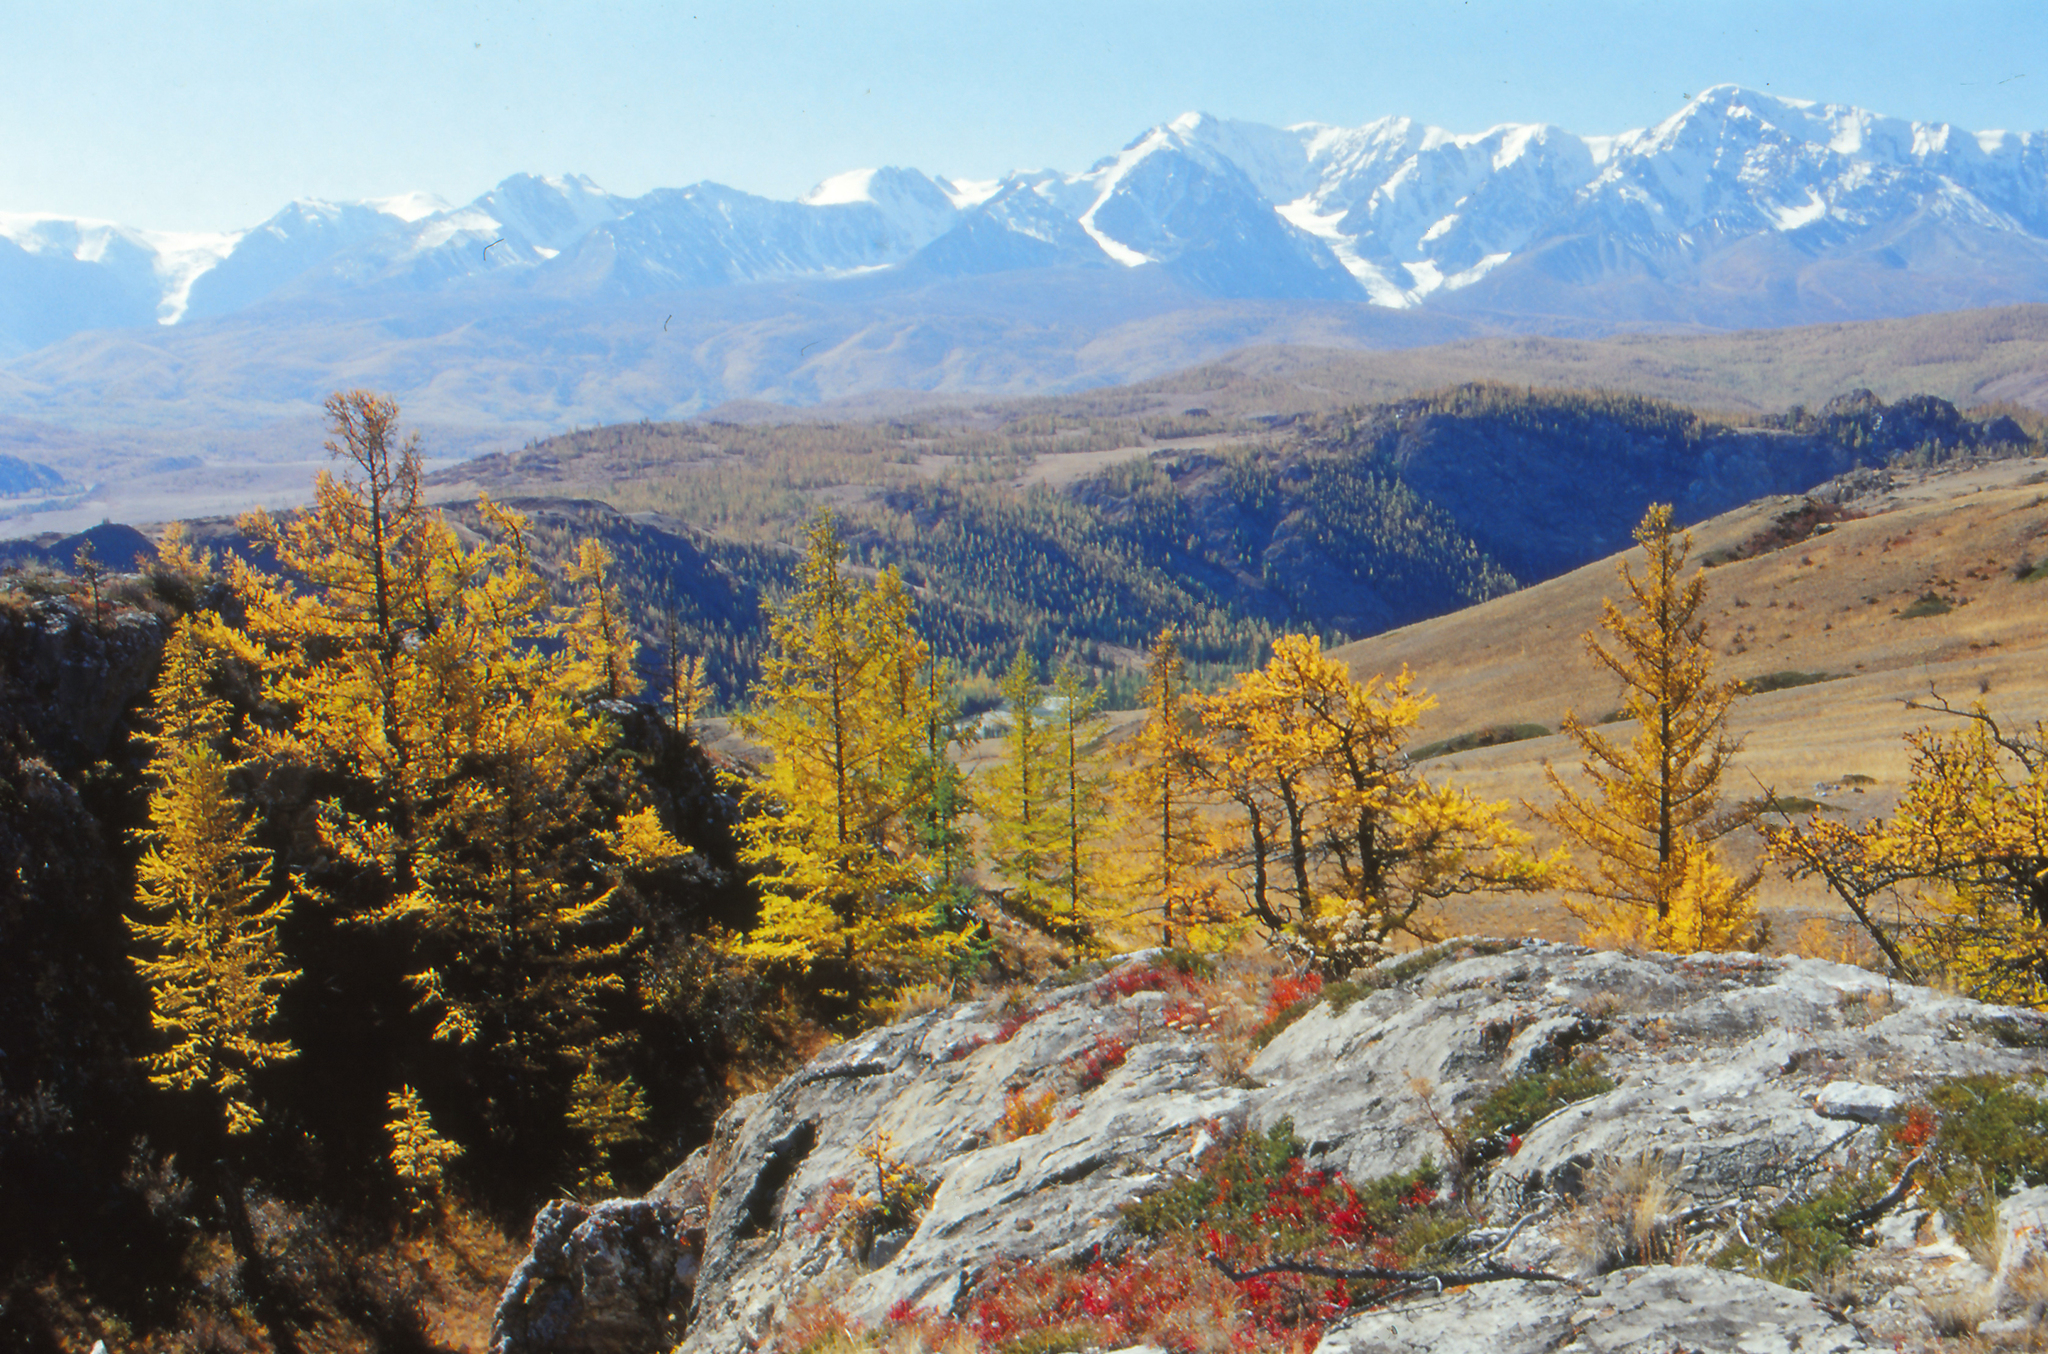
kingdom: Plantae
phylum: Tracheophyta
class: Pinopsida
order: Pinales
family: Pinaceae
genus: Larix
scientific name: Larix sibirica
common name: Siberian larch
